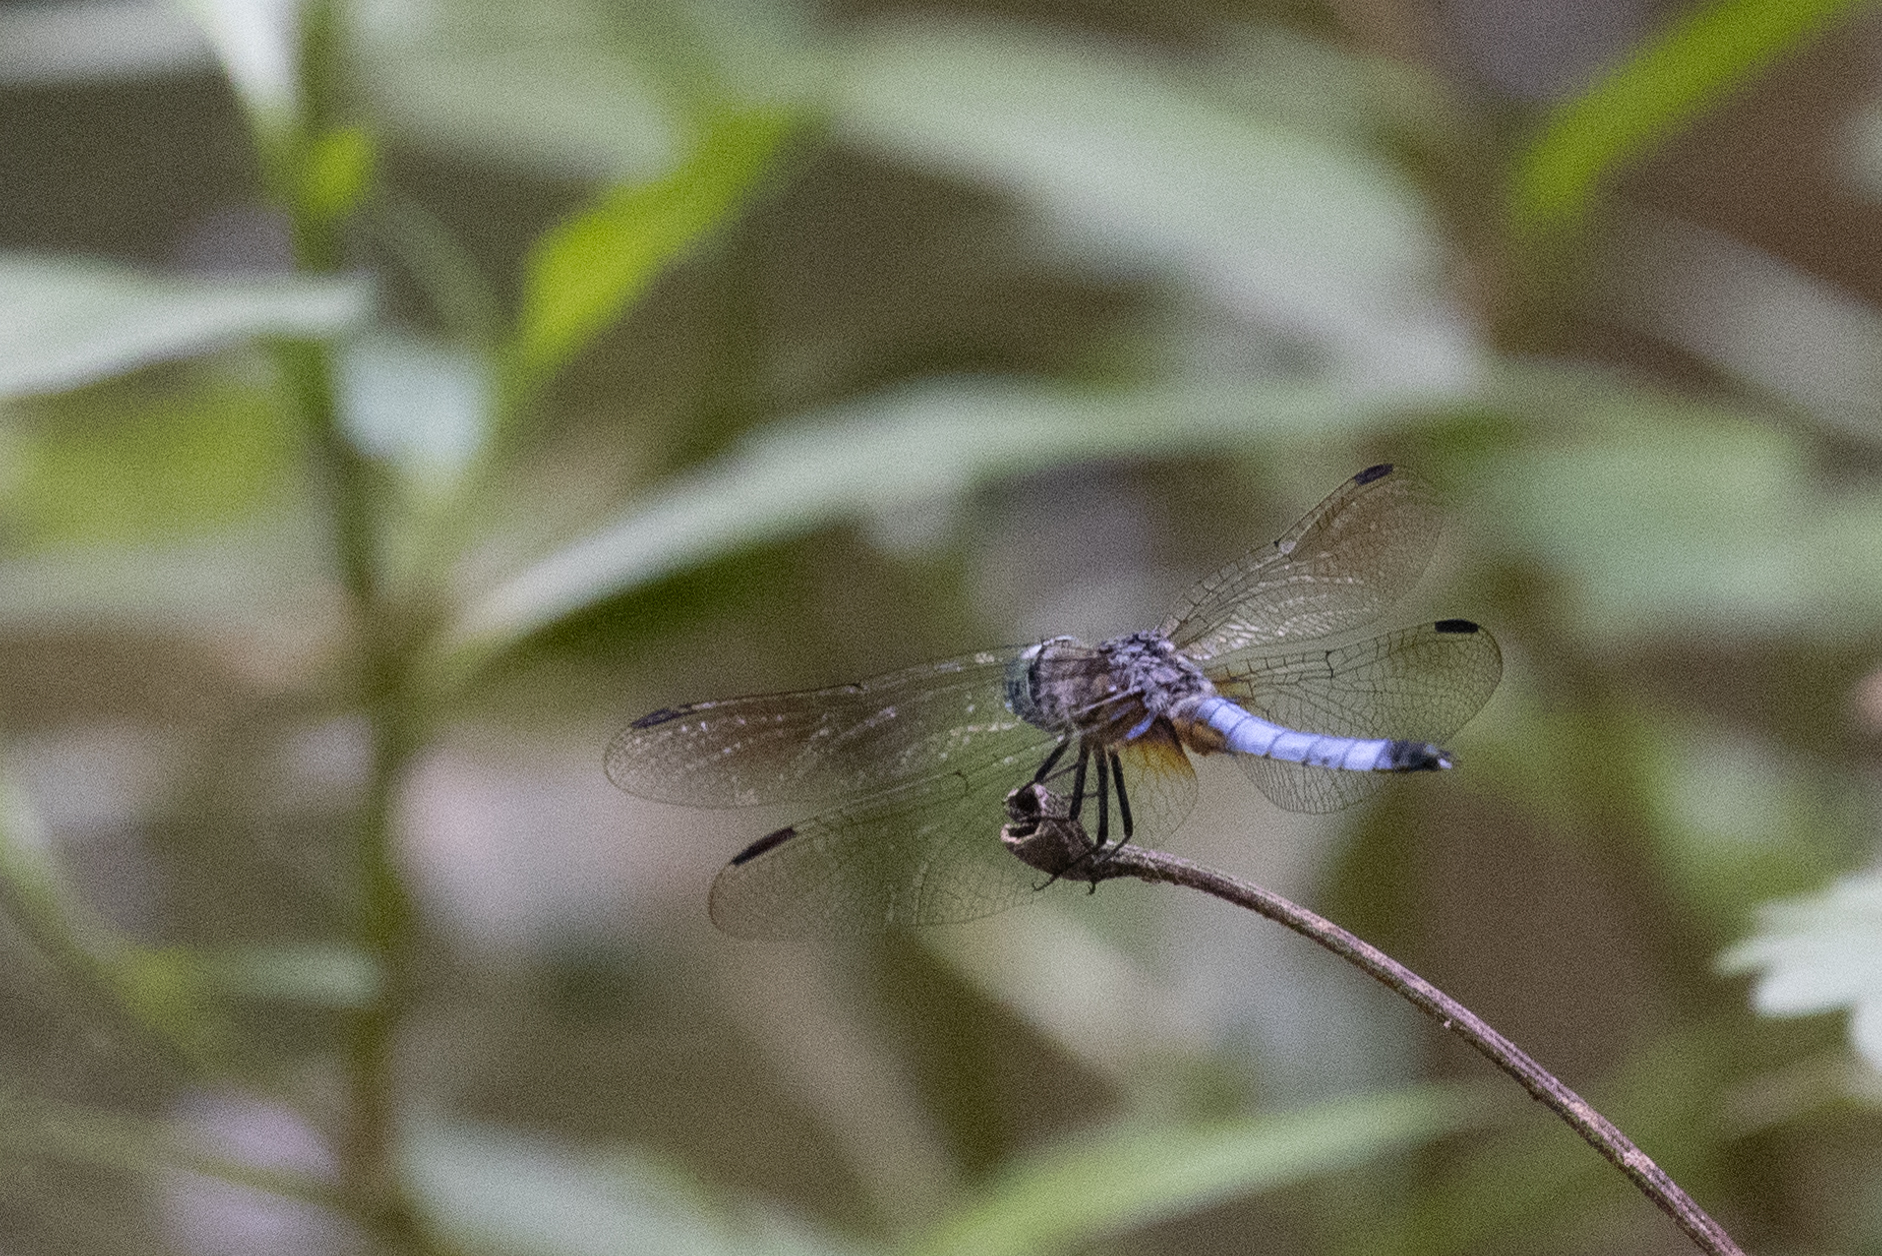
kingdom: Animalia
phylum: Arthropoda
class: Insecta
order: Odonata
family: Libellulidae
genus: Pachydiplax
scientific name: Pachydiplax longipennis
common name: Blue dasher
